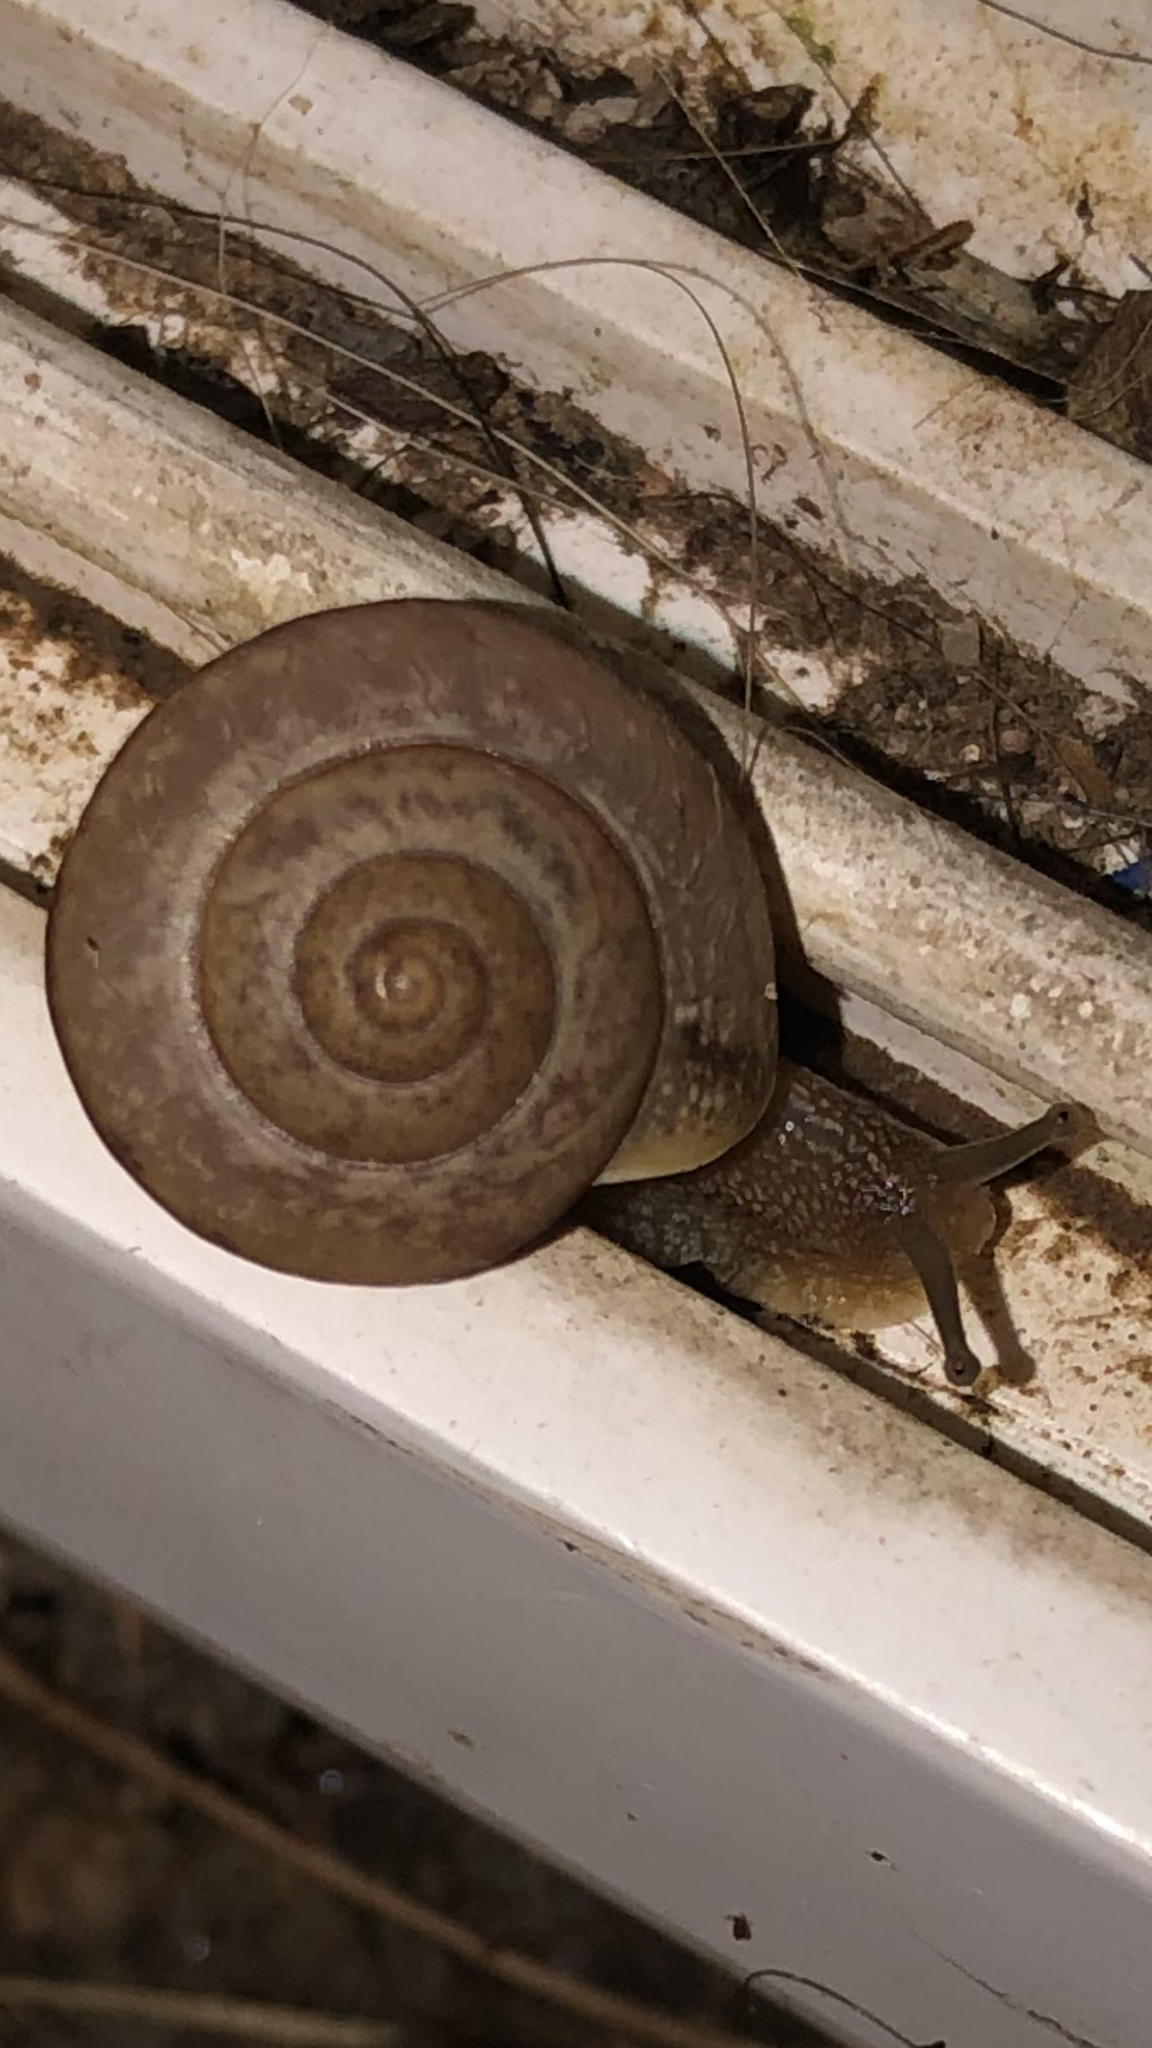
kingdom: Animalia
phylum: Mollusca
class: Gastropoda
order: Stylommatophora
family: Camaenidae
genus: Bradybaena
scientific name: Bradybaena similaris
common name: Asian trampsnail
